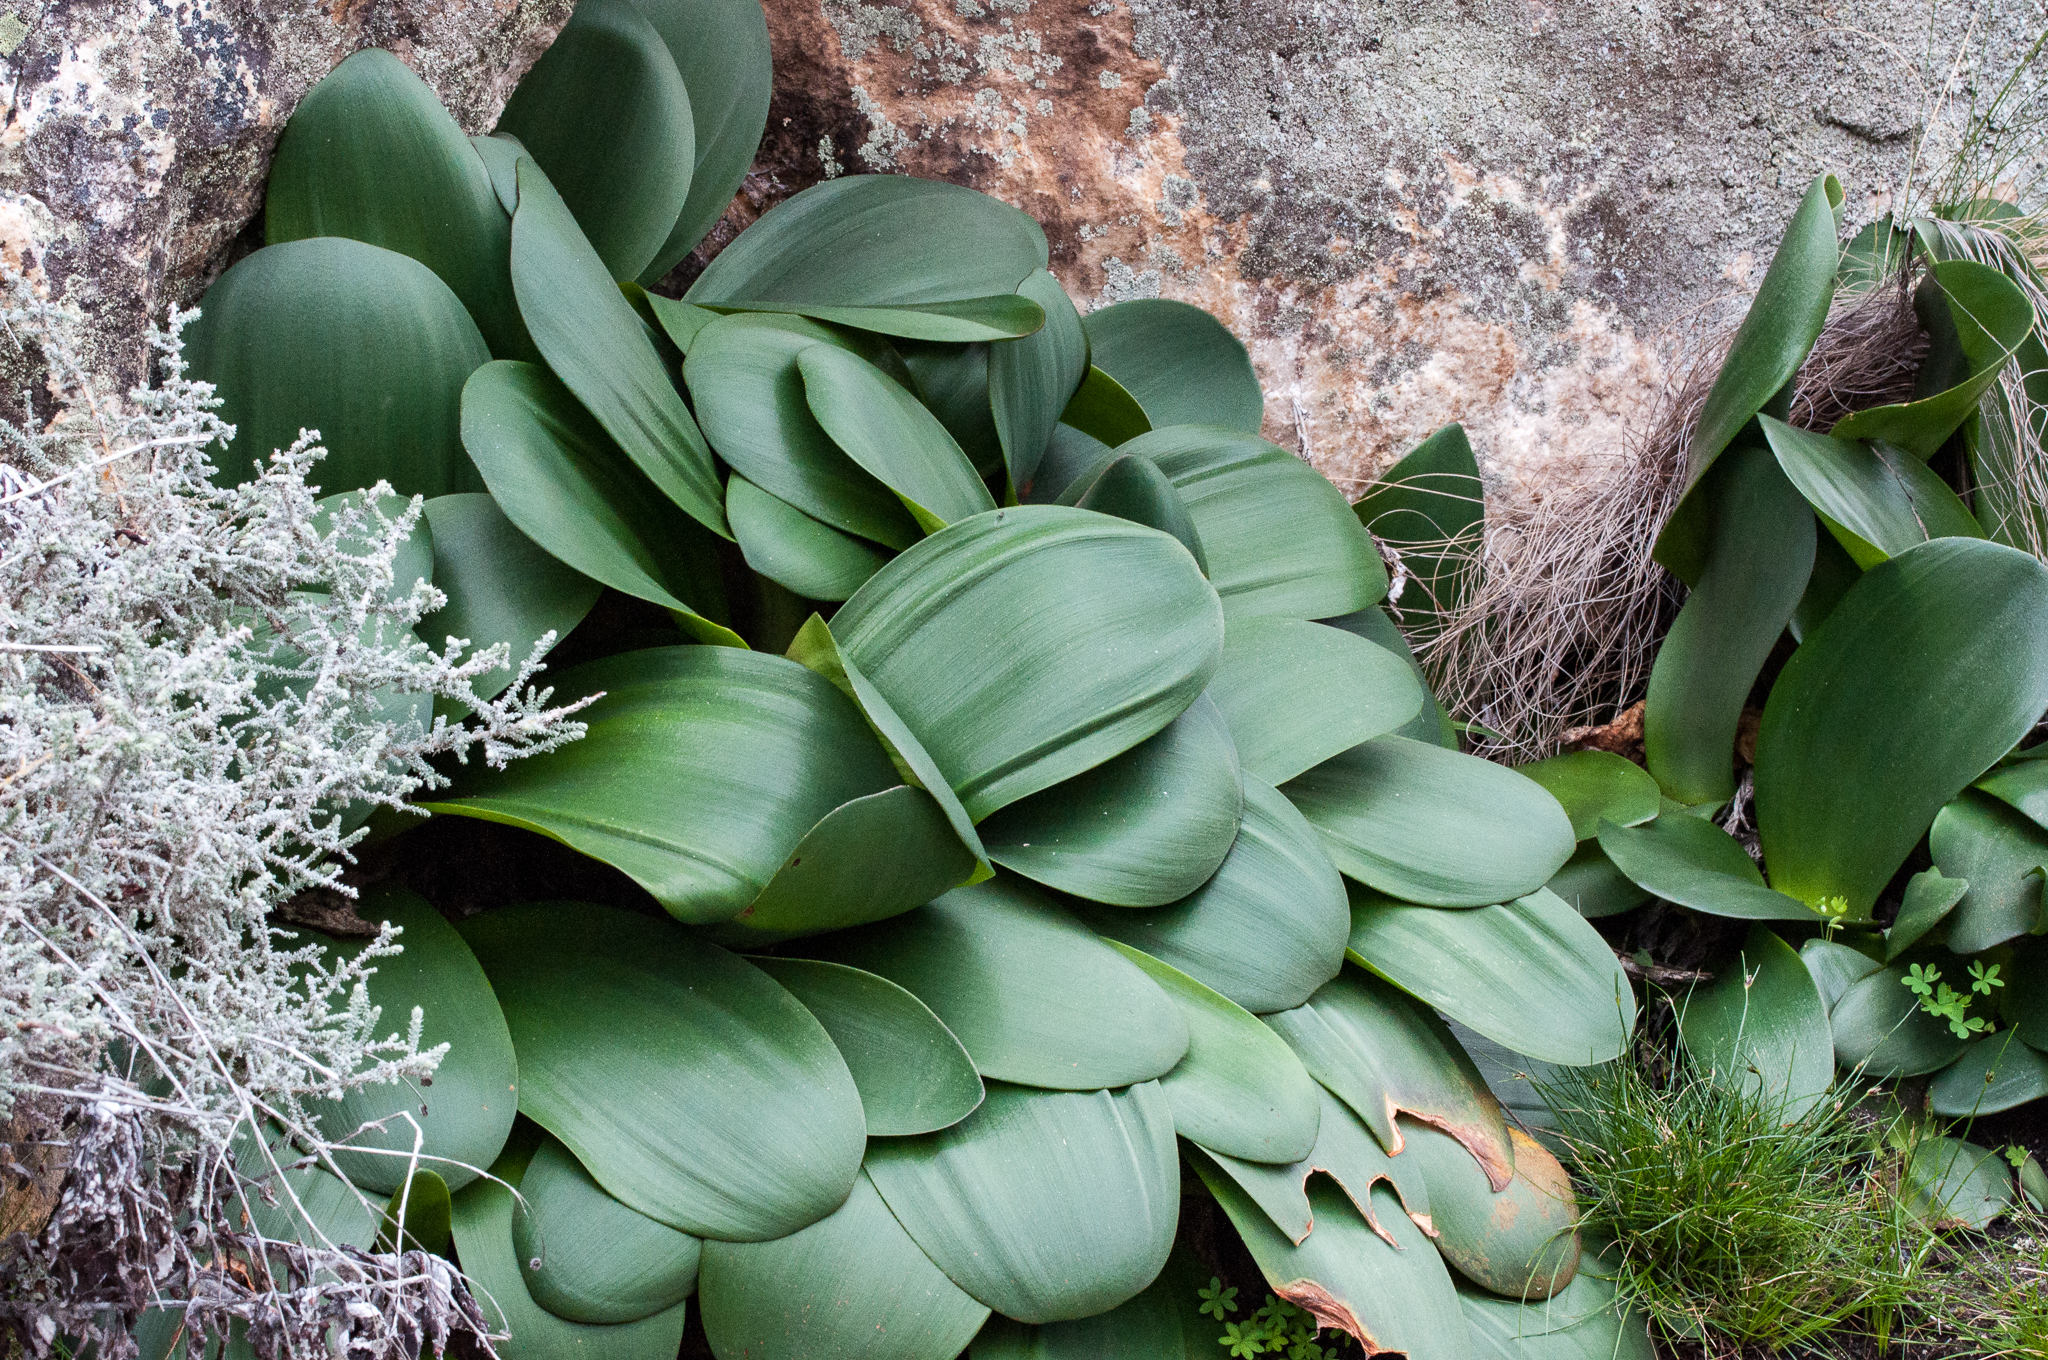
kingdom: Plantae
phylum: Tracheophyta
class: Liliopsida
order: Asparagales
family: Amaryllidaceae
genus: Haemanthus
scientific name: Haemanthus coccineus
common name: Cape-tulip
